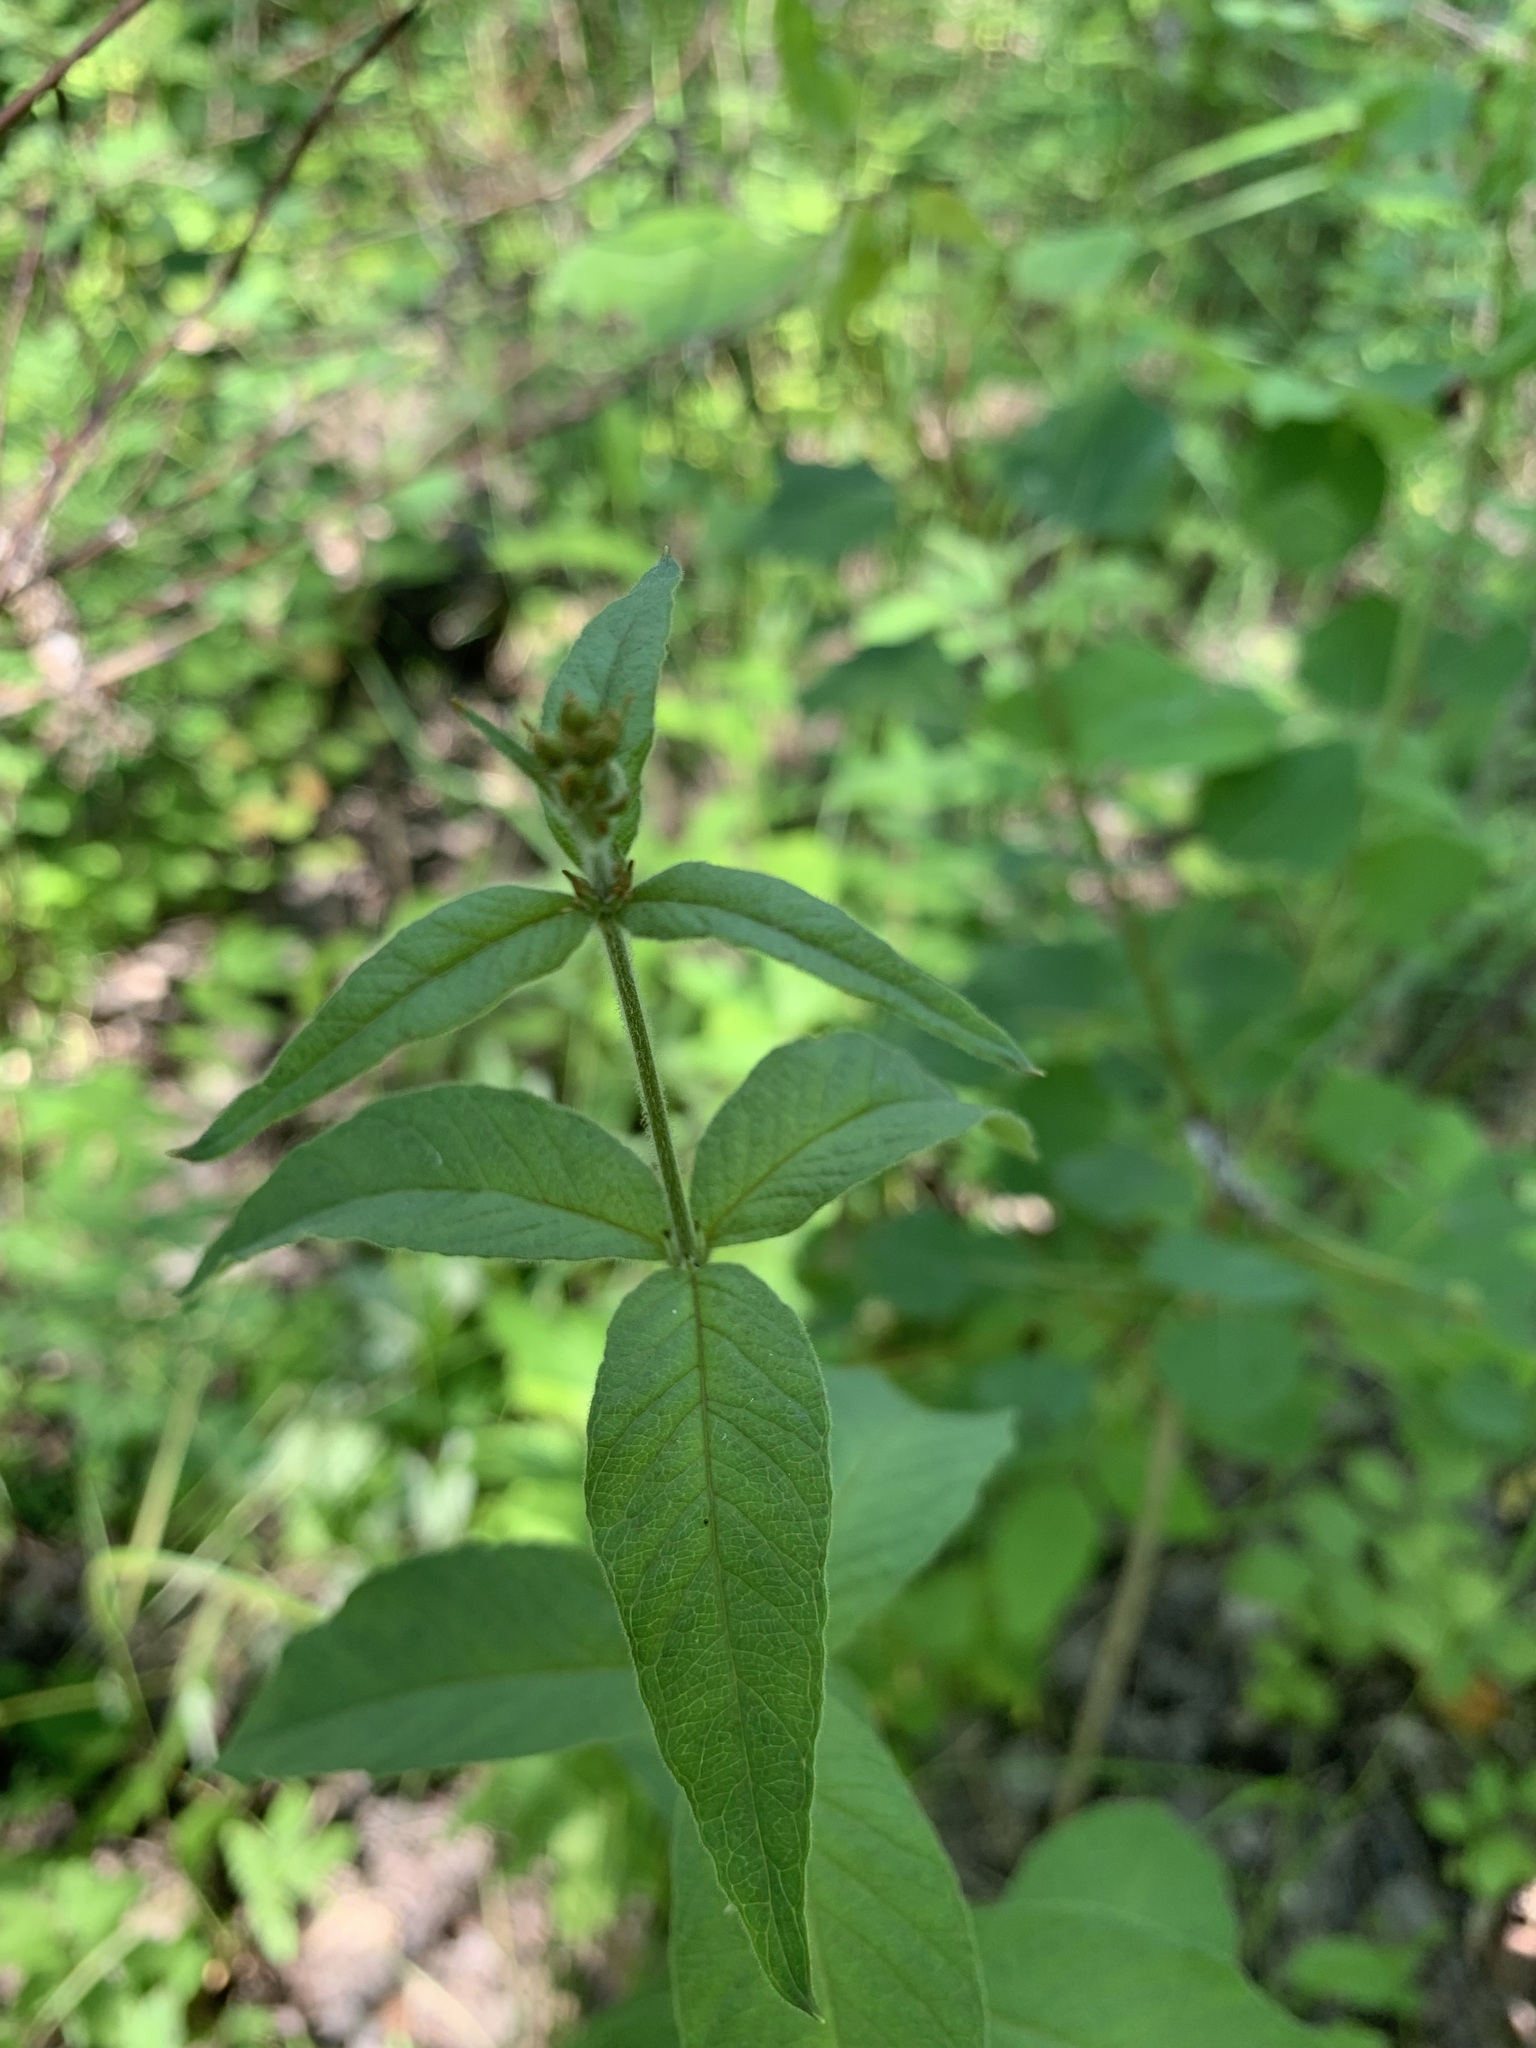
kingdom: Plantae
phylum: Tracheophyta
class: Magnoliopsida
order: Ericales
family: Primulaceae
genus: Lysimachia
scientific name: Lysimachia vulgaris
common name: Yellow loosestrife
